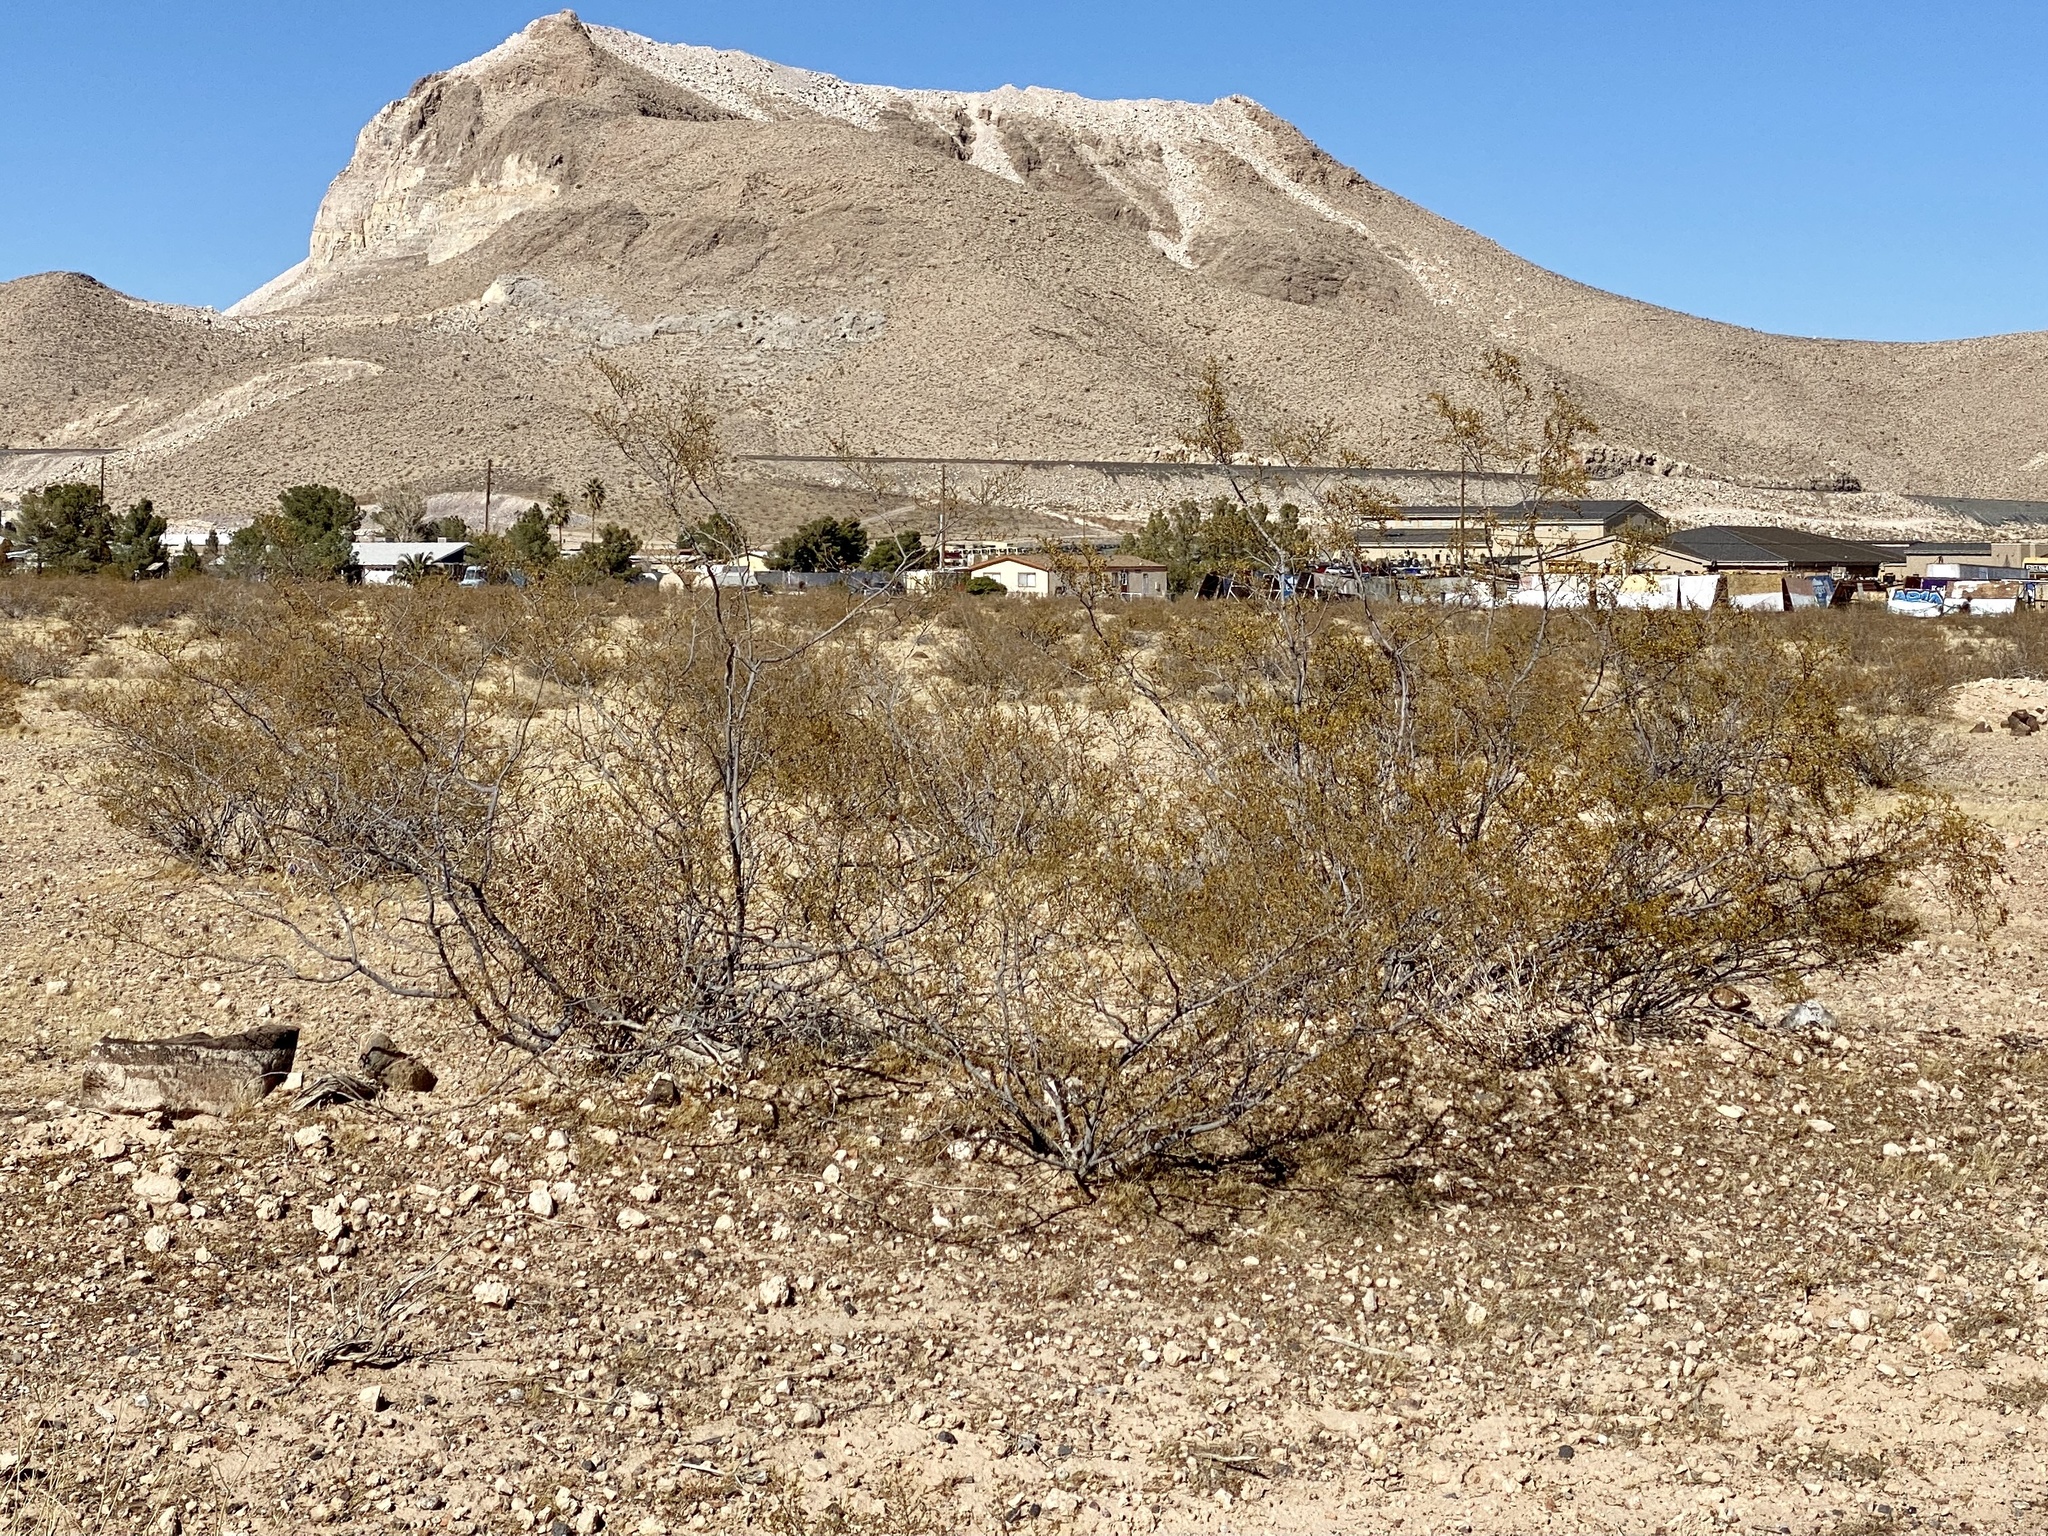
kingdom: Plantae
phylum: Tracheophyta
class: Magnoliopsida
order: Zygophyllales
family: Zygophyllaceae
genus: Larrea
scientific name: Larrea tridentata
